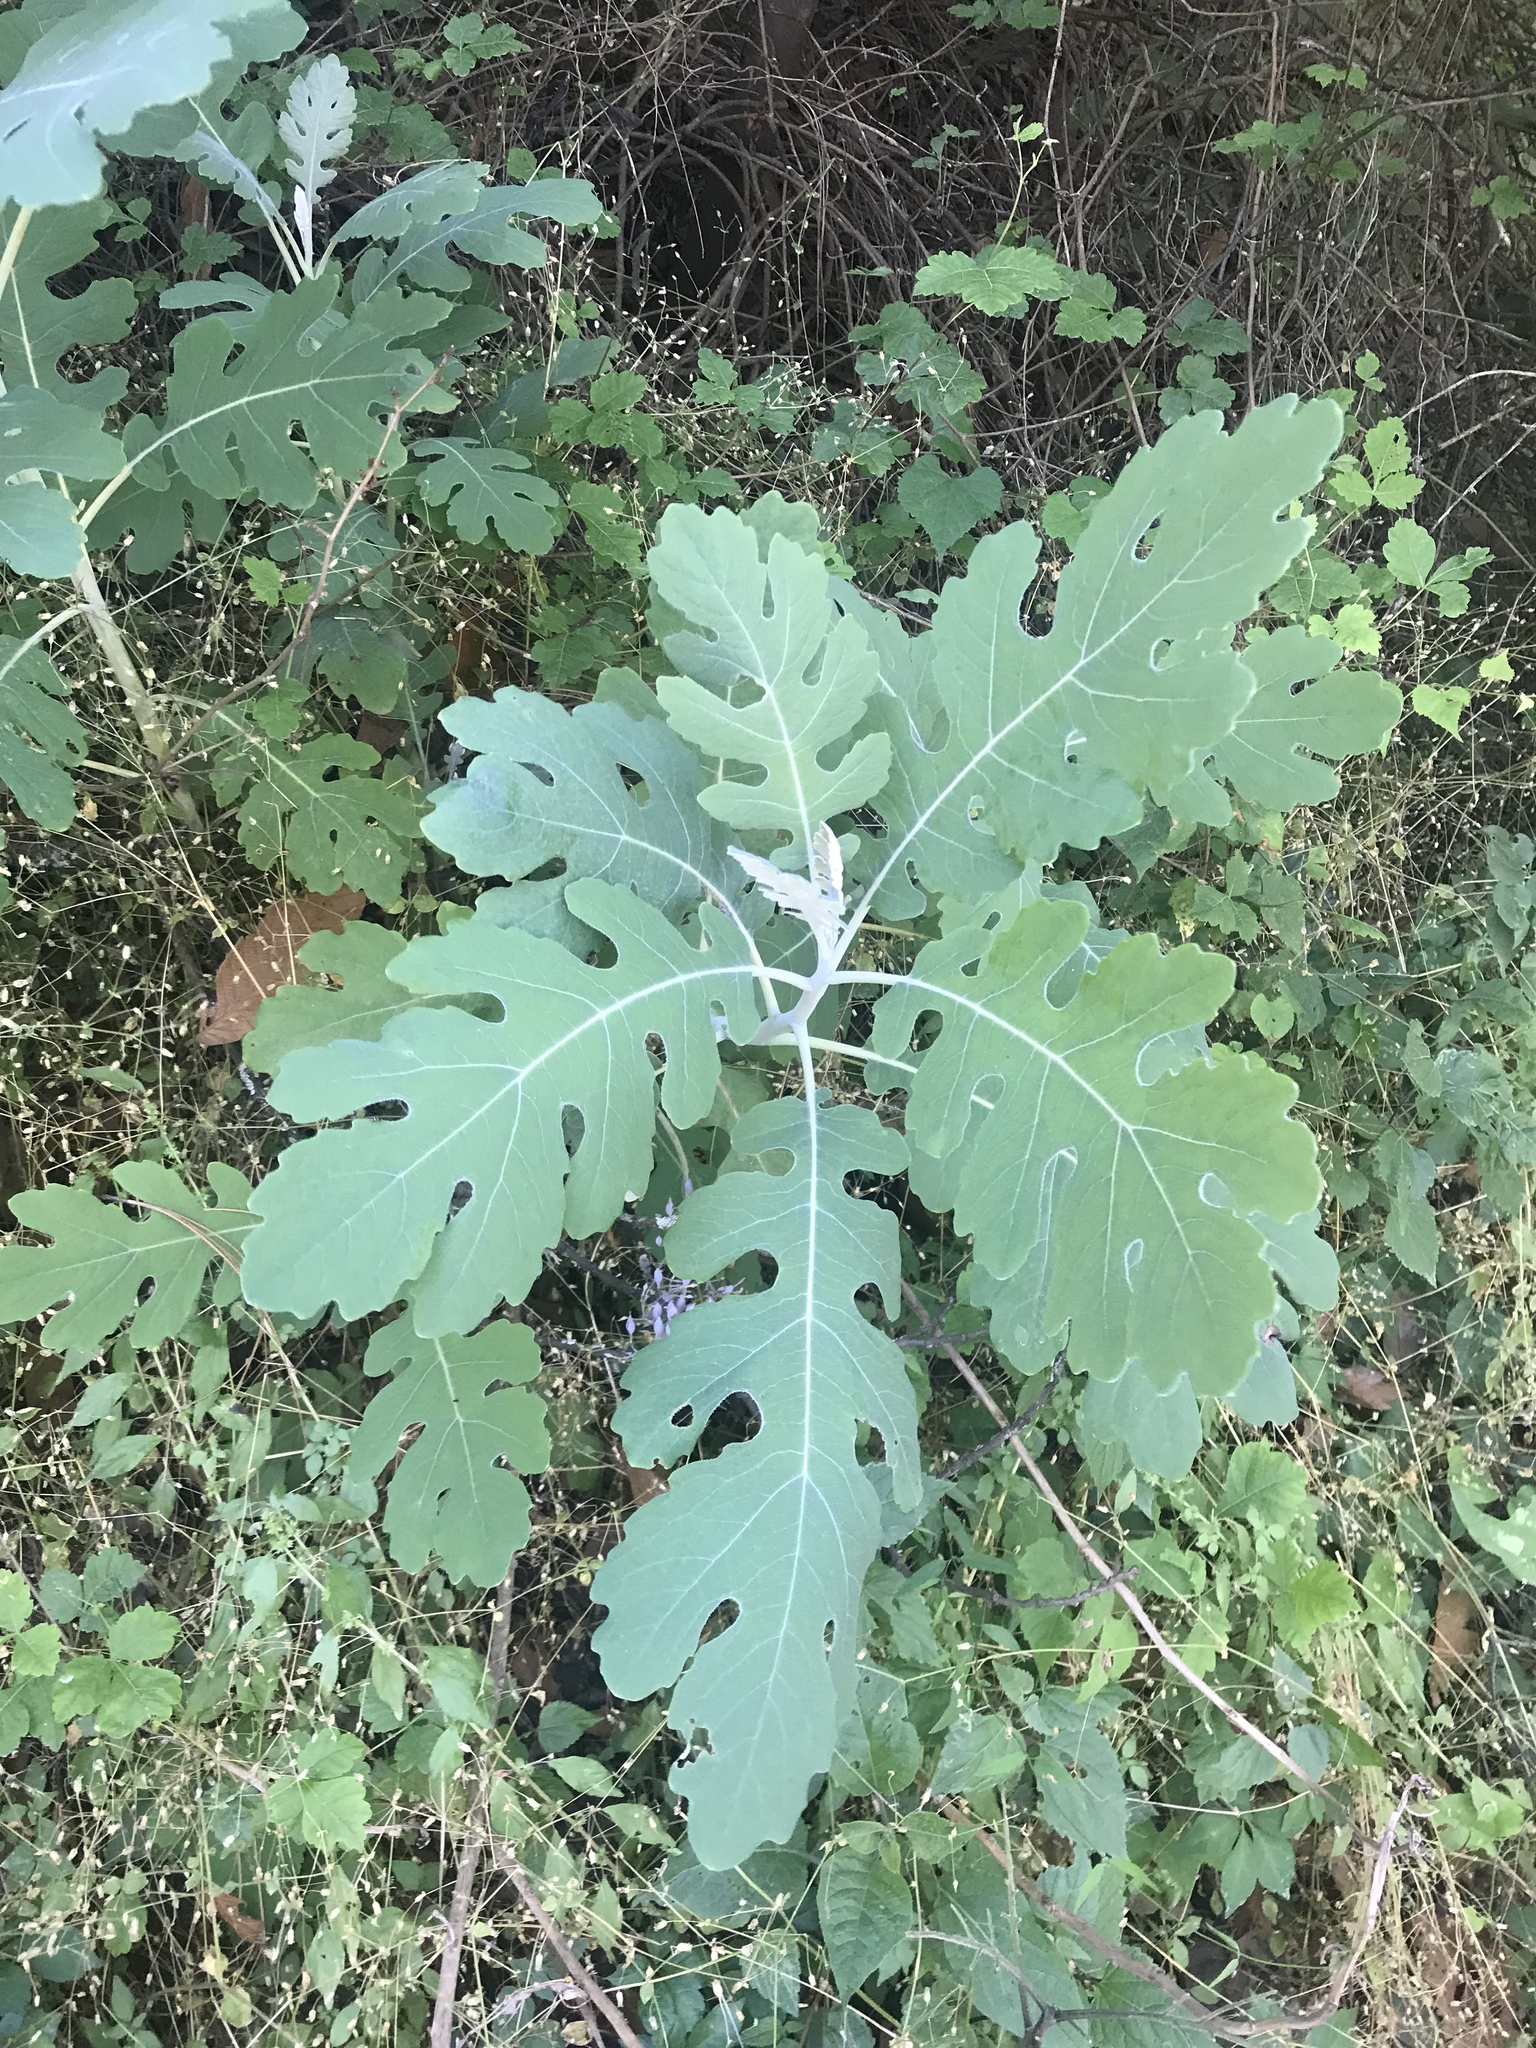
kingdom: Plantae
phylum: Tracheophyta
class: Magnoliopsida
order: Ranunculales
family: Papaveraceae
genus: Bocconia
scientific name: Bocconia frutescens
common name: Tree poppy
